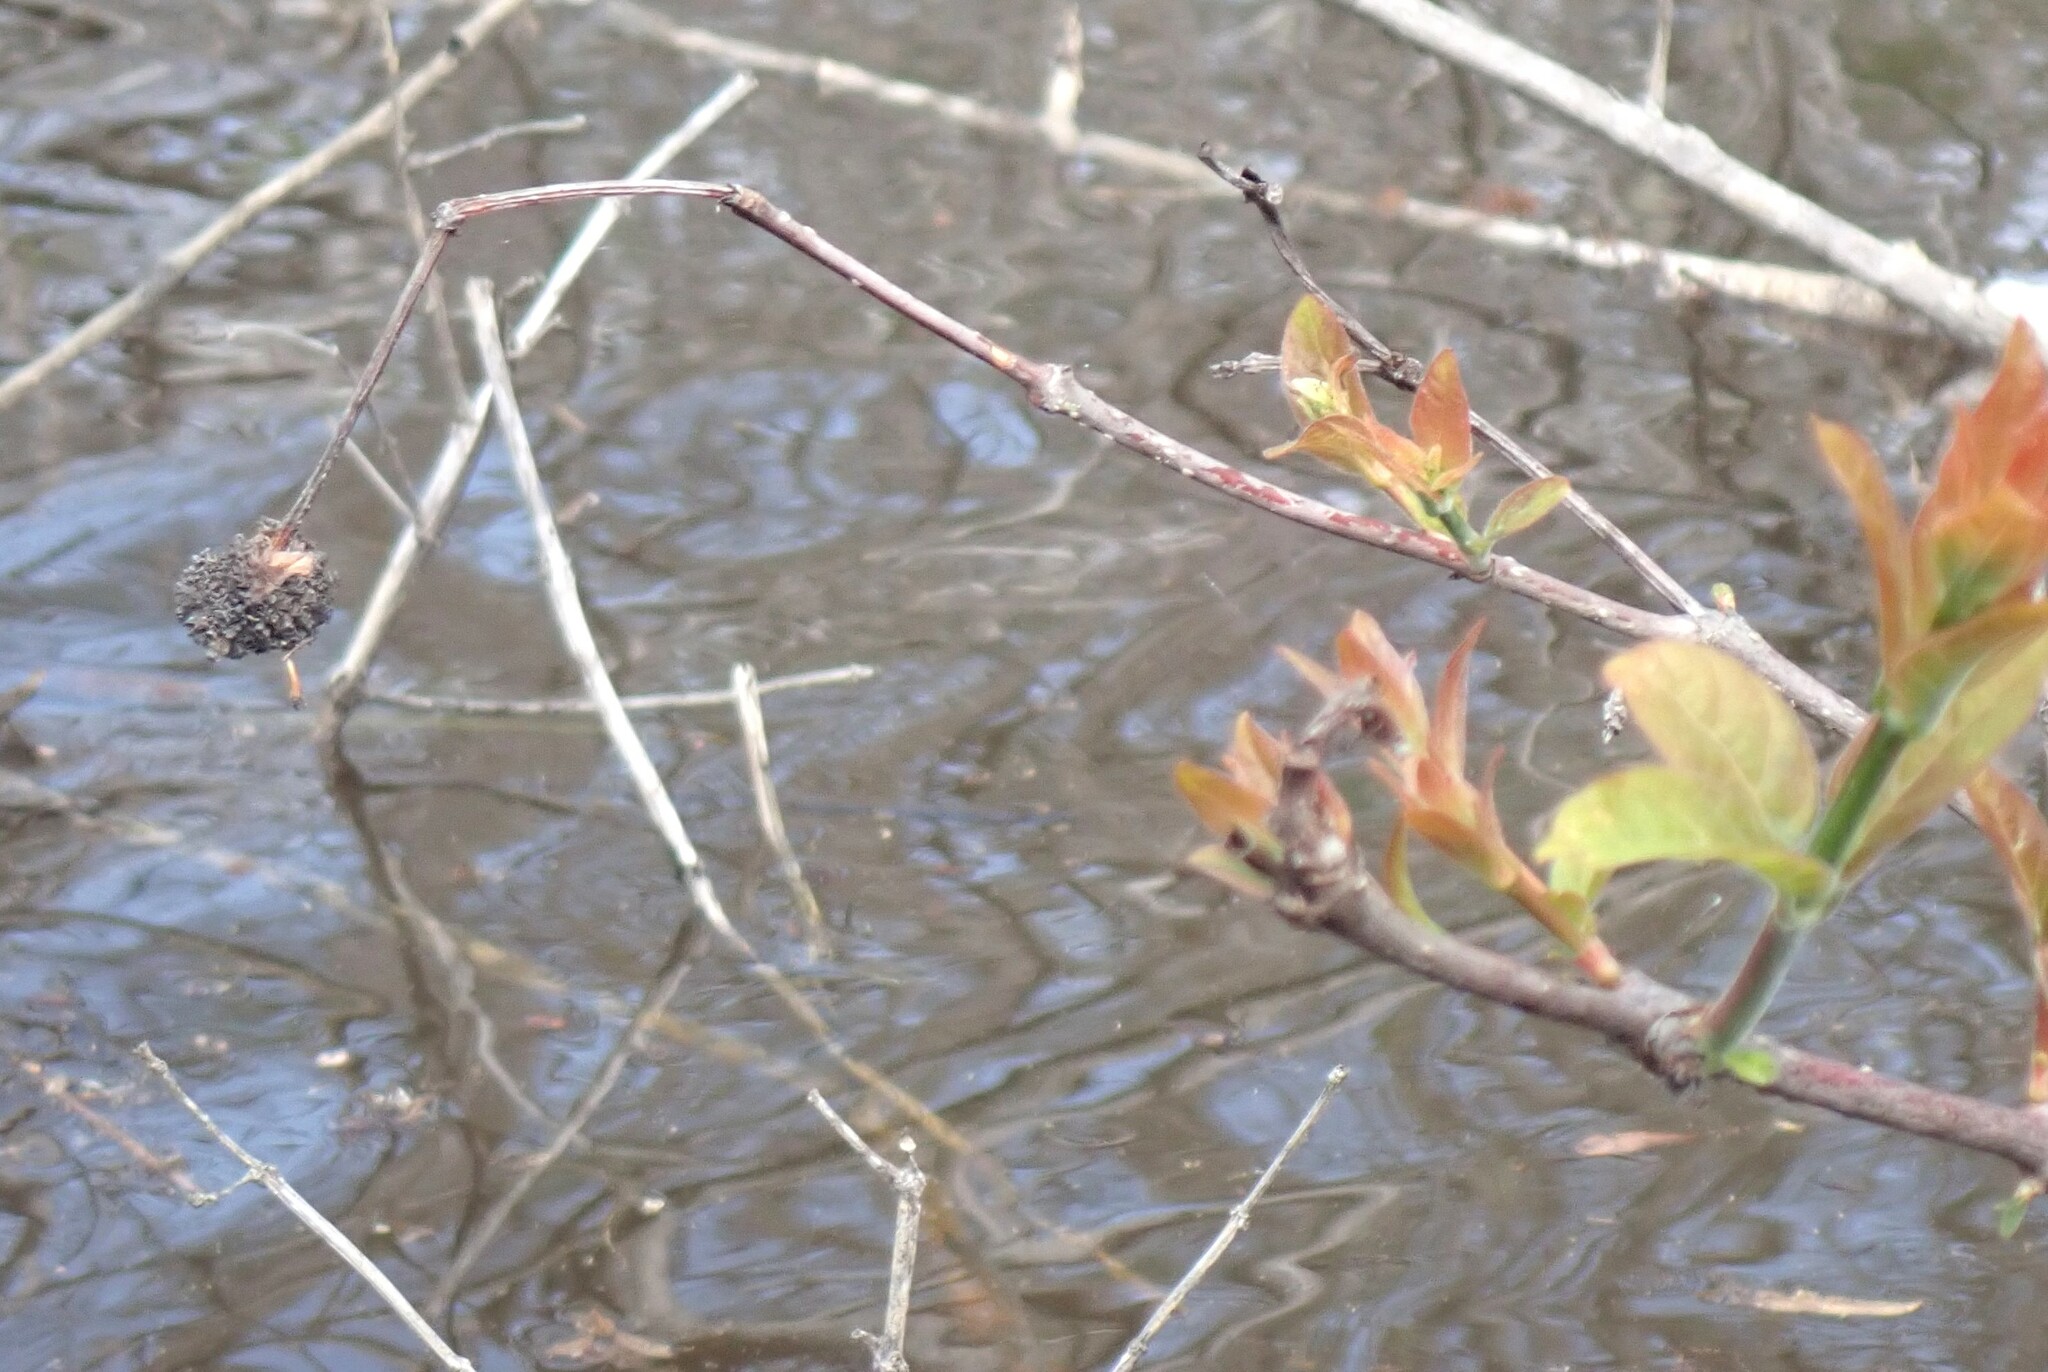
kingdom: Plantae
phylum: Tracheophyta
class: Magnoliopsida
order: Gentianales
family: Rubiaceae
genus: Cephalanthus
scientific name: Cephalanthus occidentalis
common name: Button-willow
